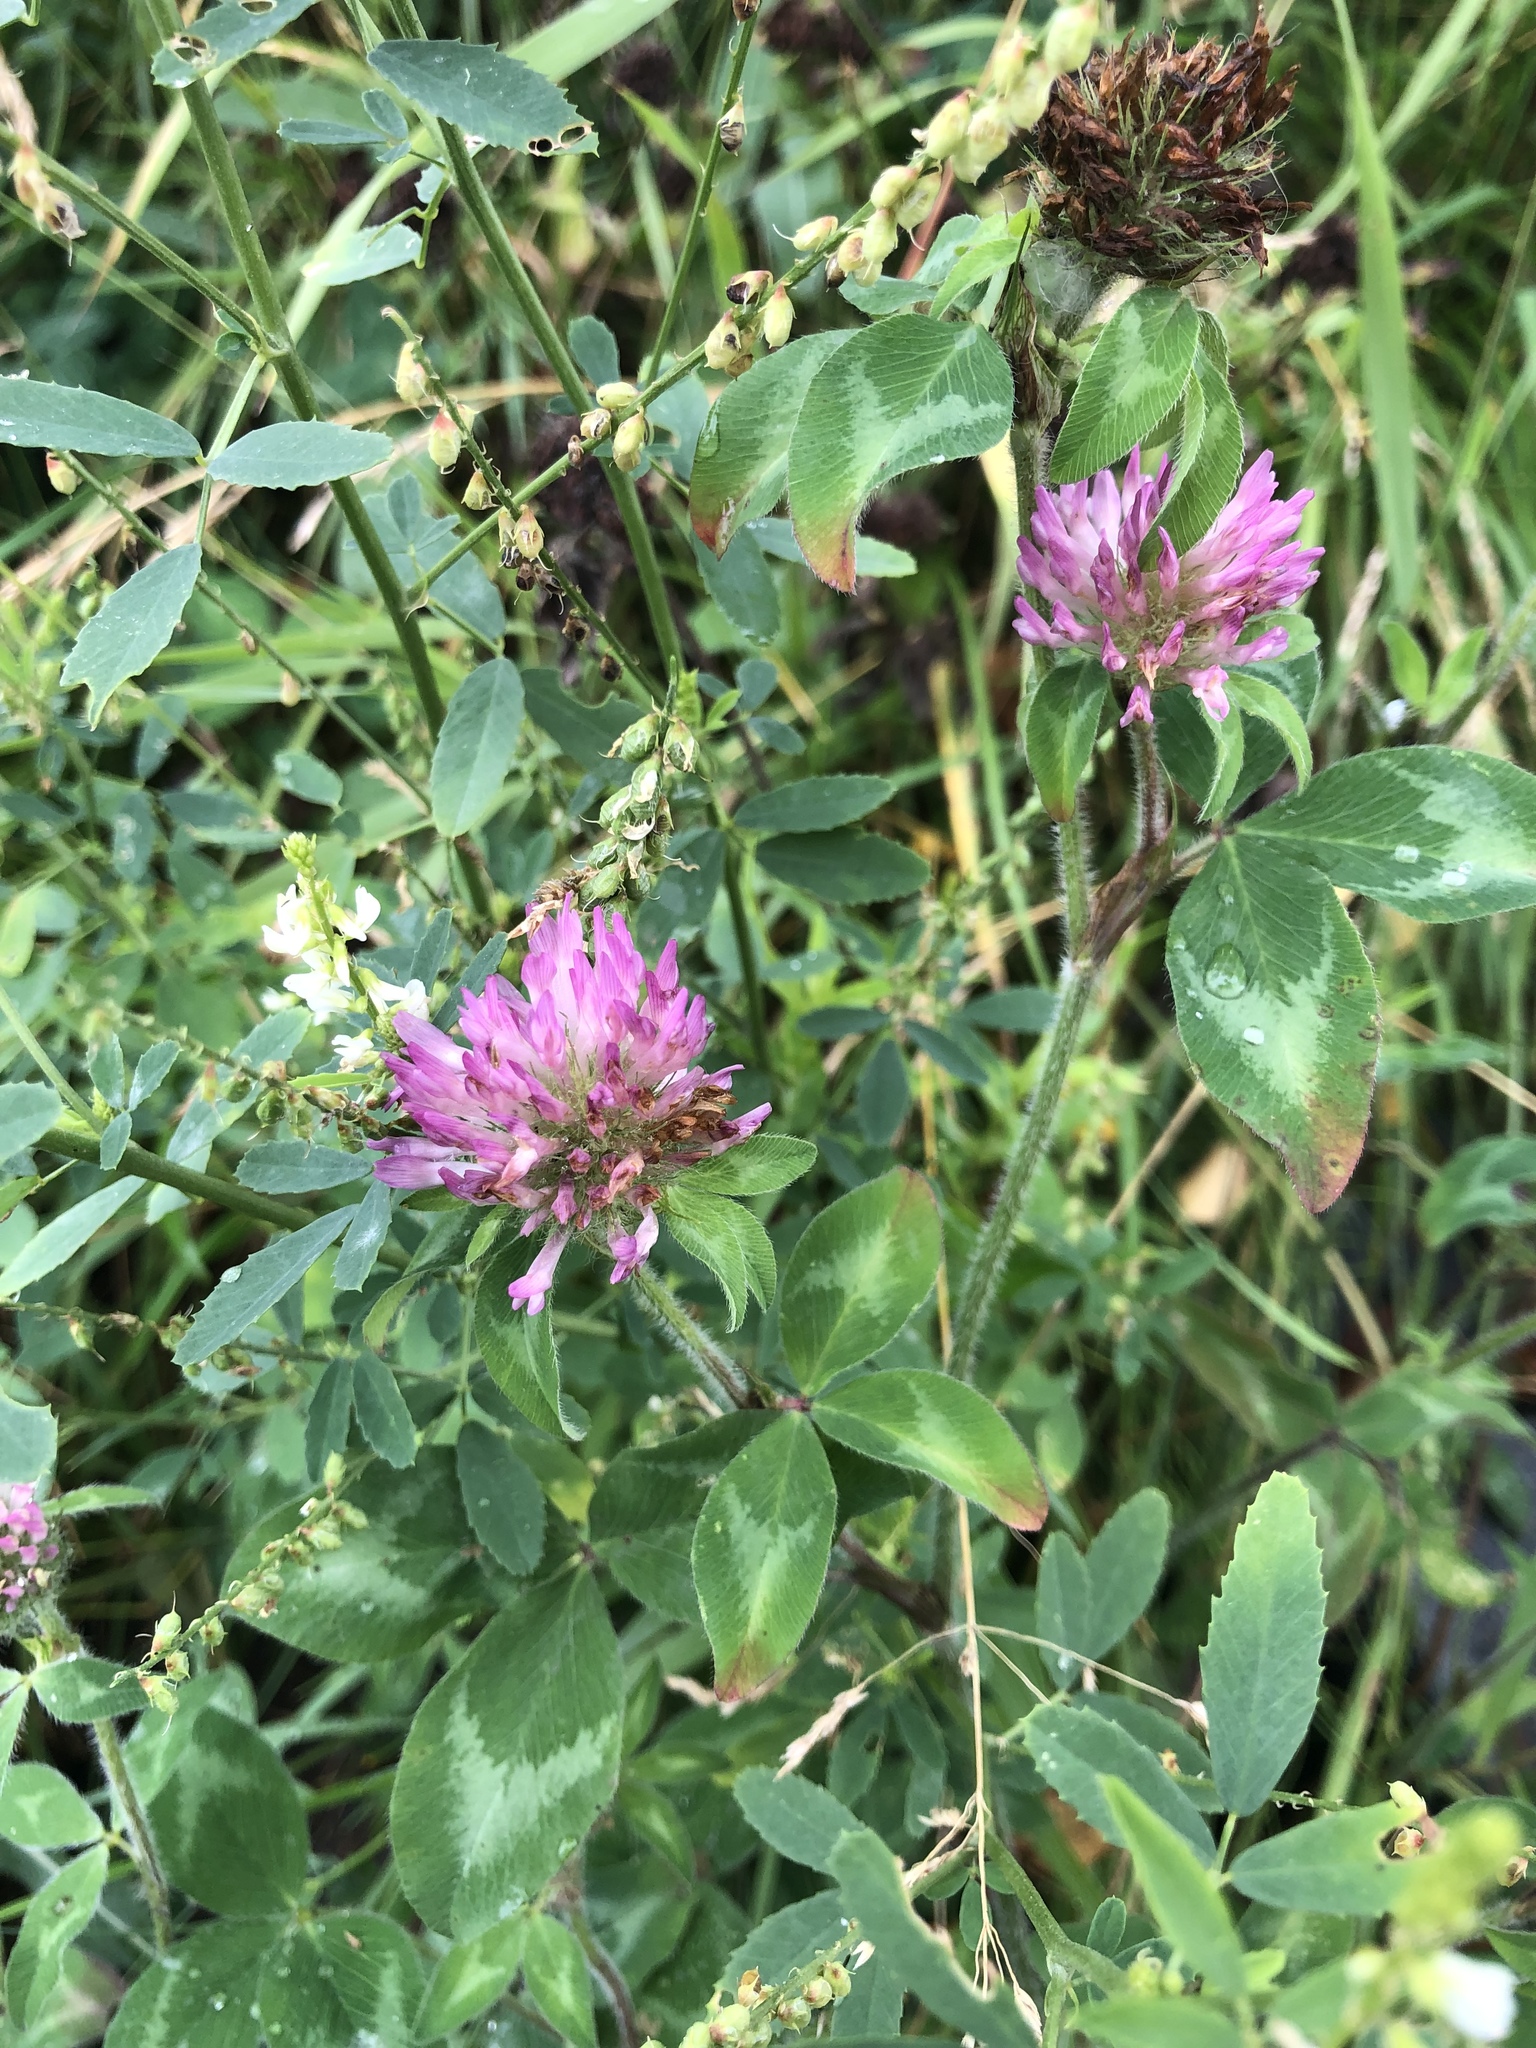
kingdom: Plantae
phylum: Tracheophyta
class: Magnoliopsida
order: Fabales
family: Fabaceae
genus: Trifolium
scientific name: Trifolium pratense
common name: Red clover
